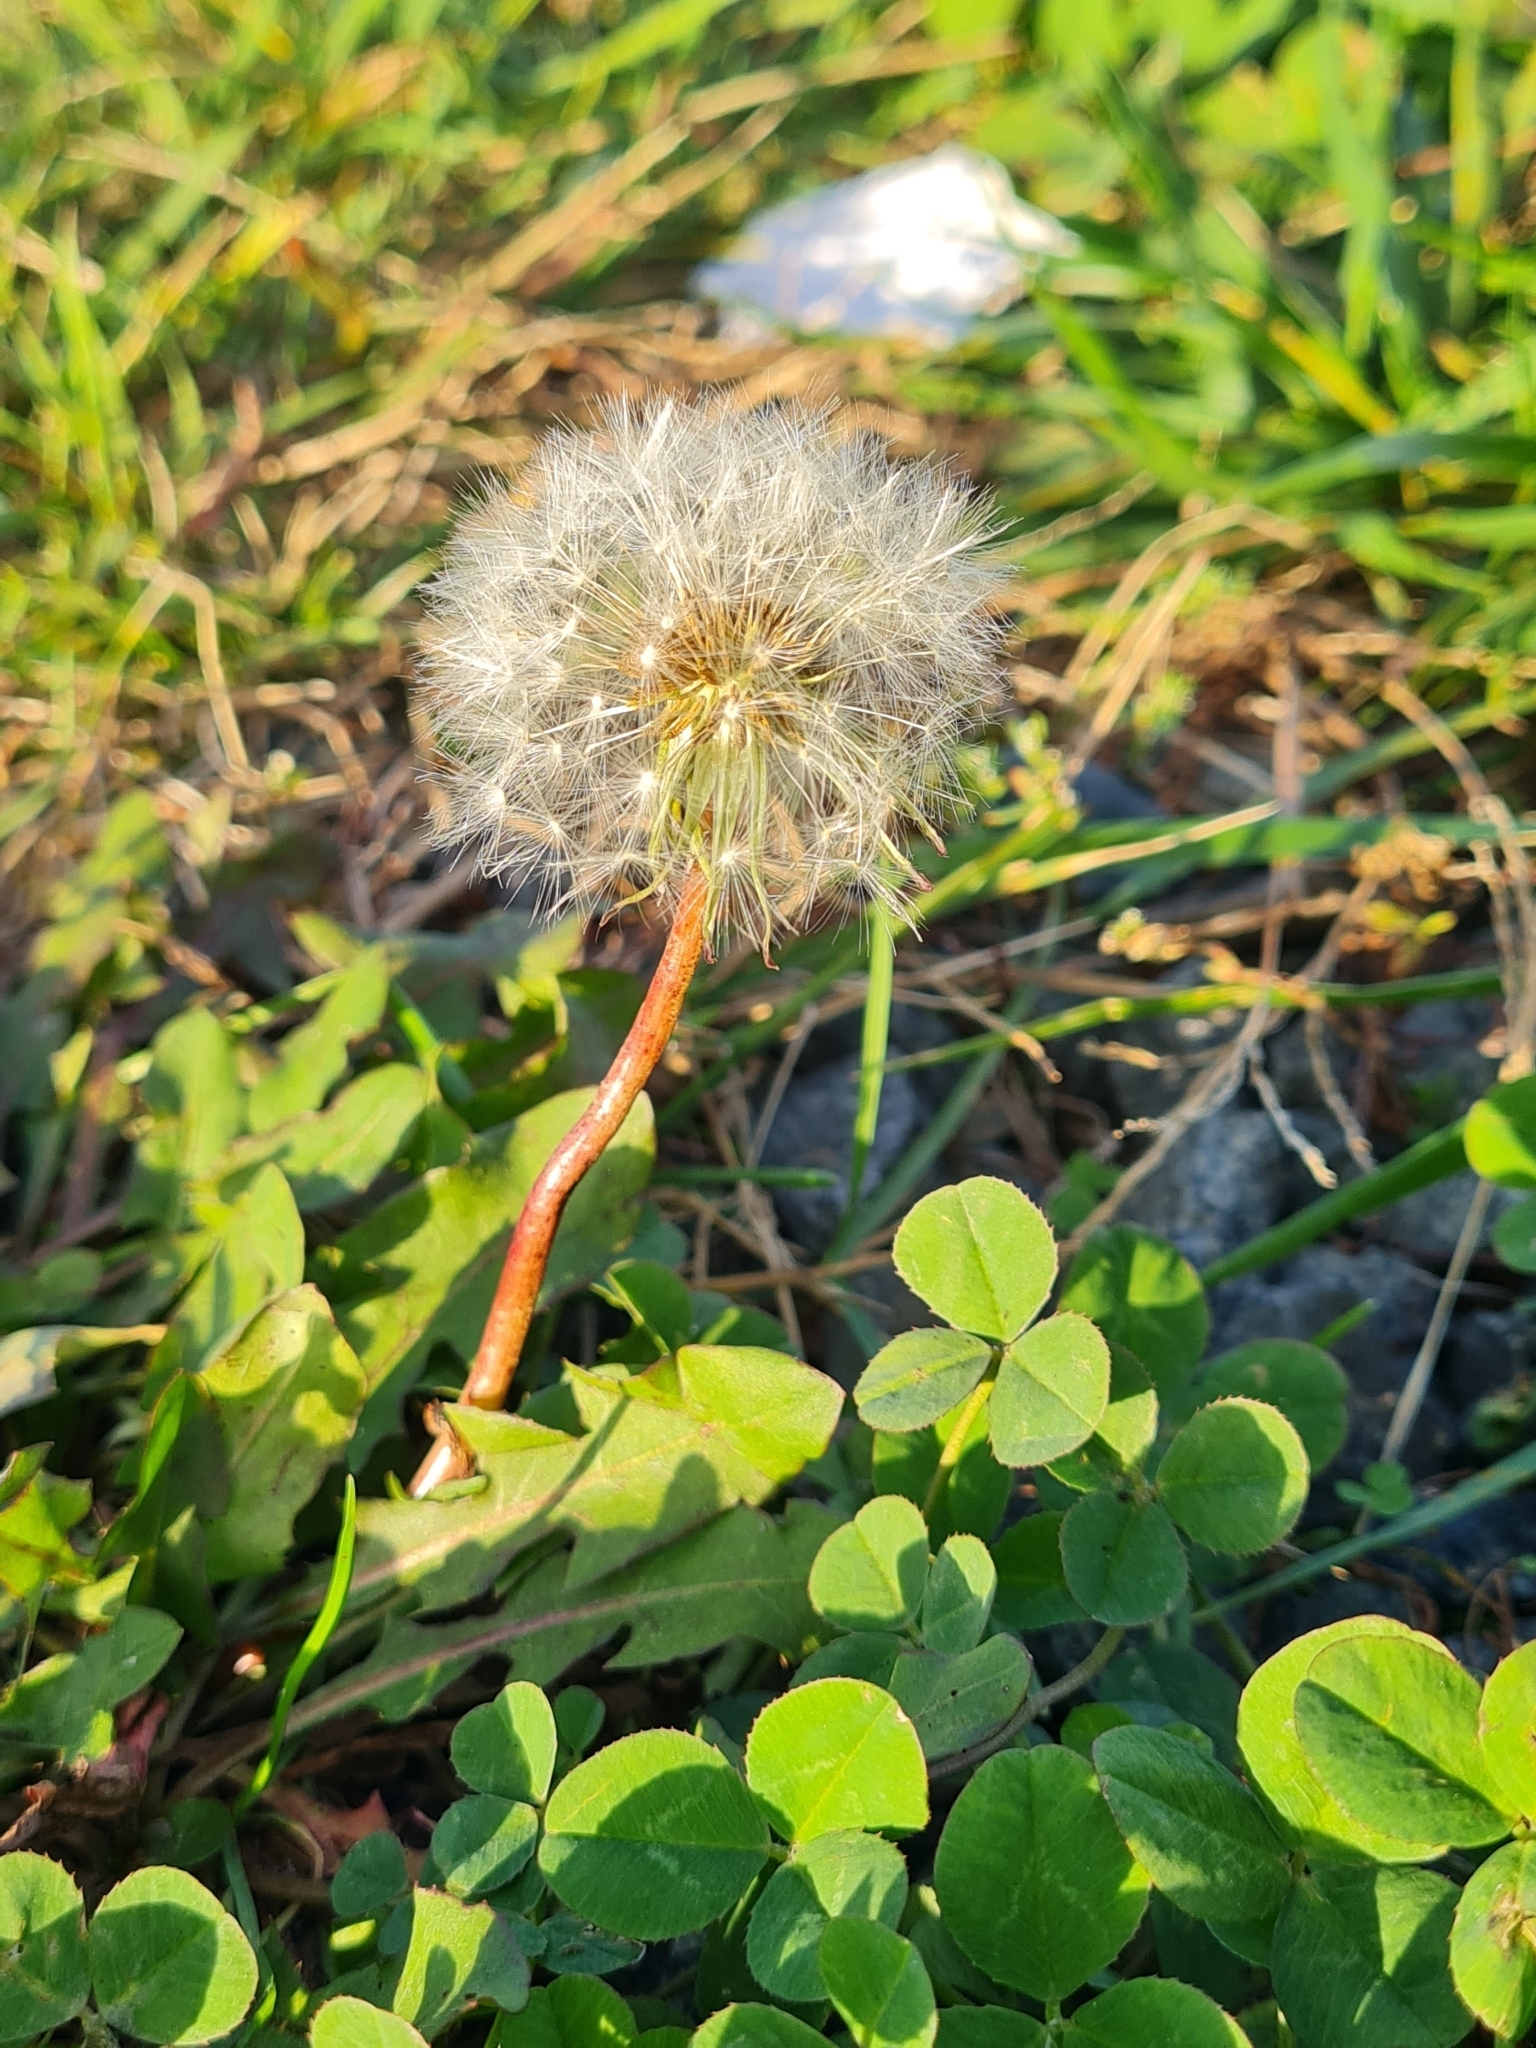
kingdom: Plantae
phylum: Tracheophyta
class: Magnoliopsida
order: Asterales
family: Asteraceae
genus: Taraxacum
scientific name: Taraxacum officinale
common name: Common dandelion
